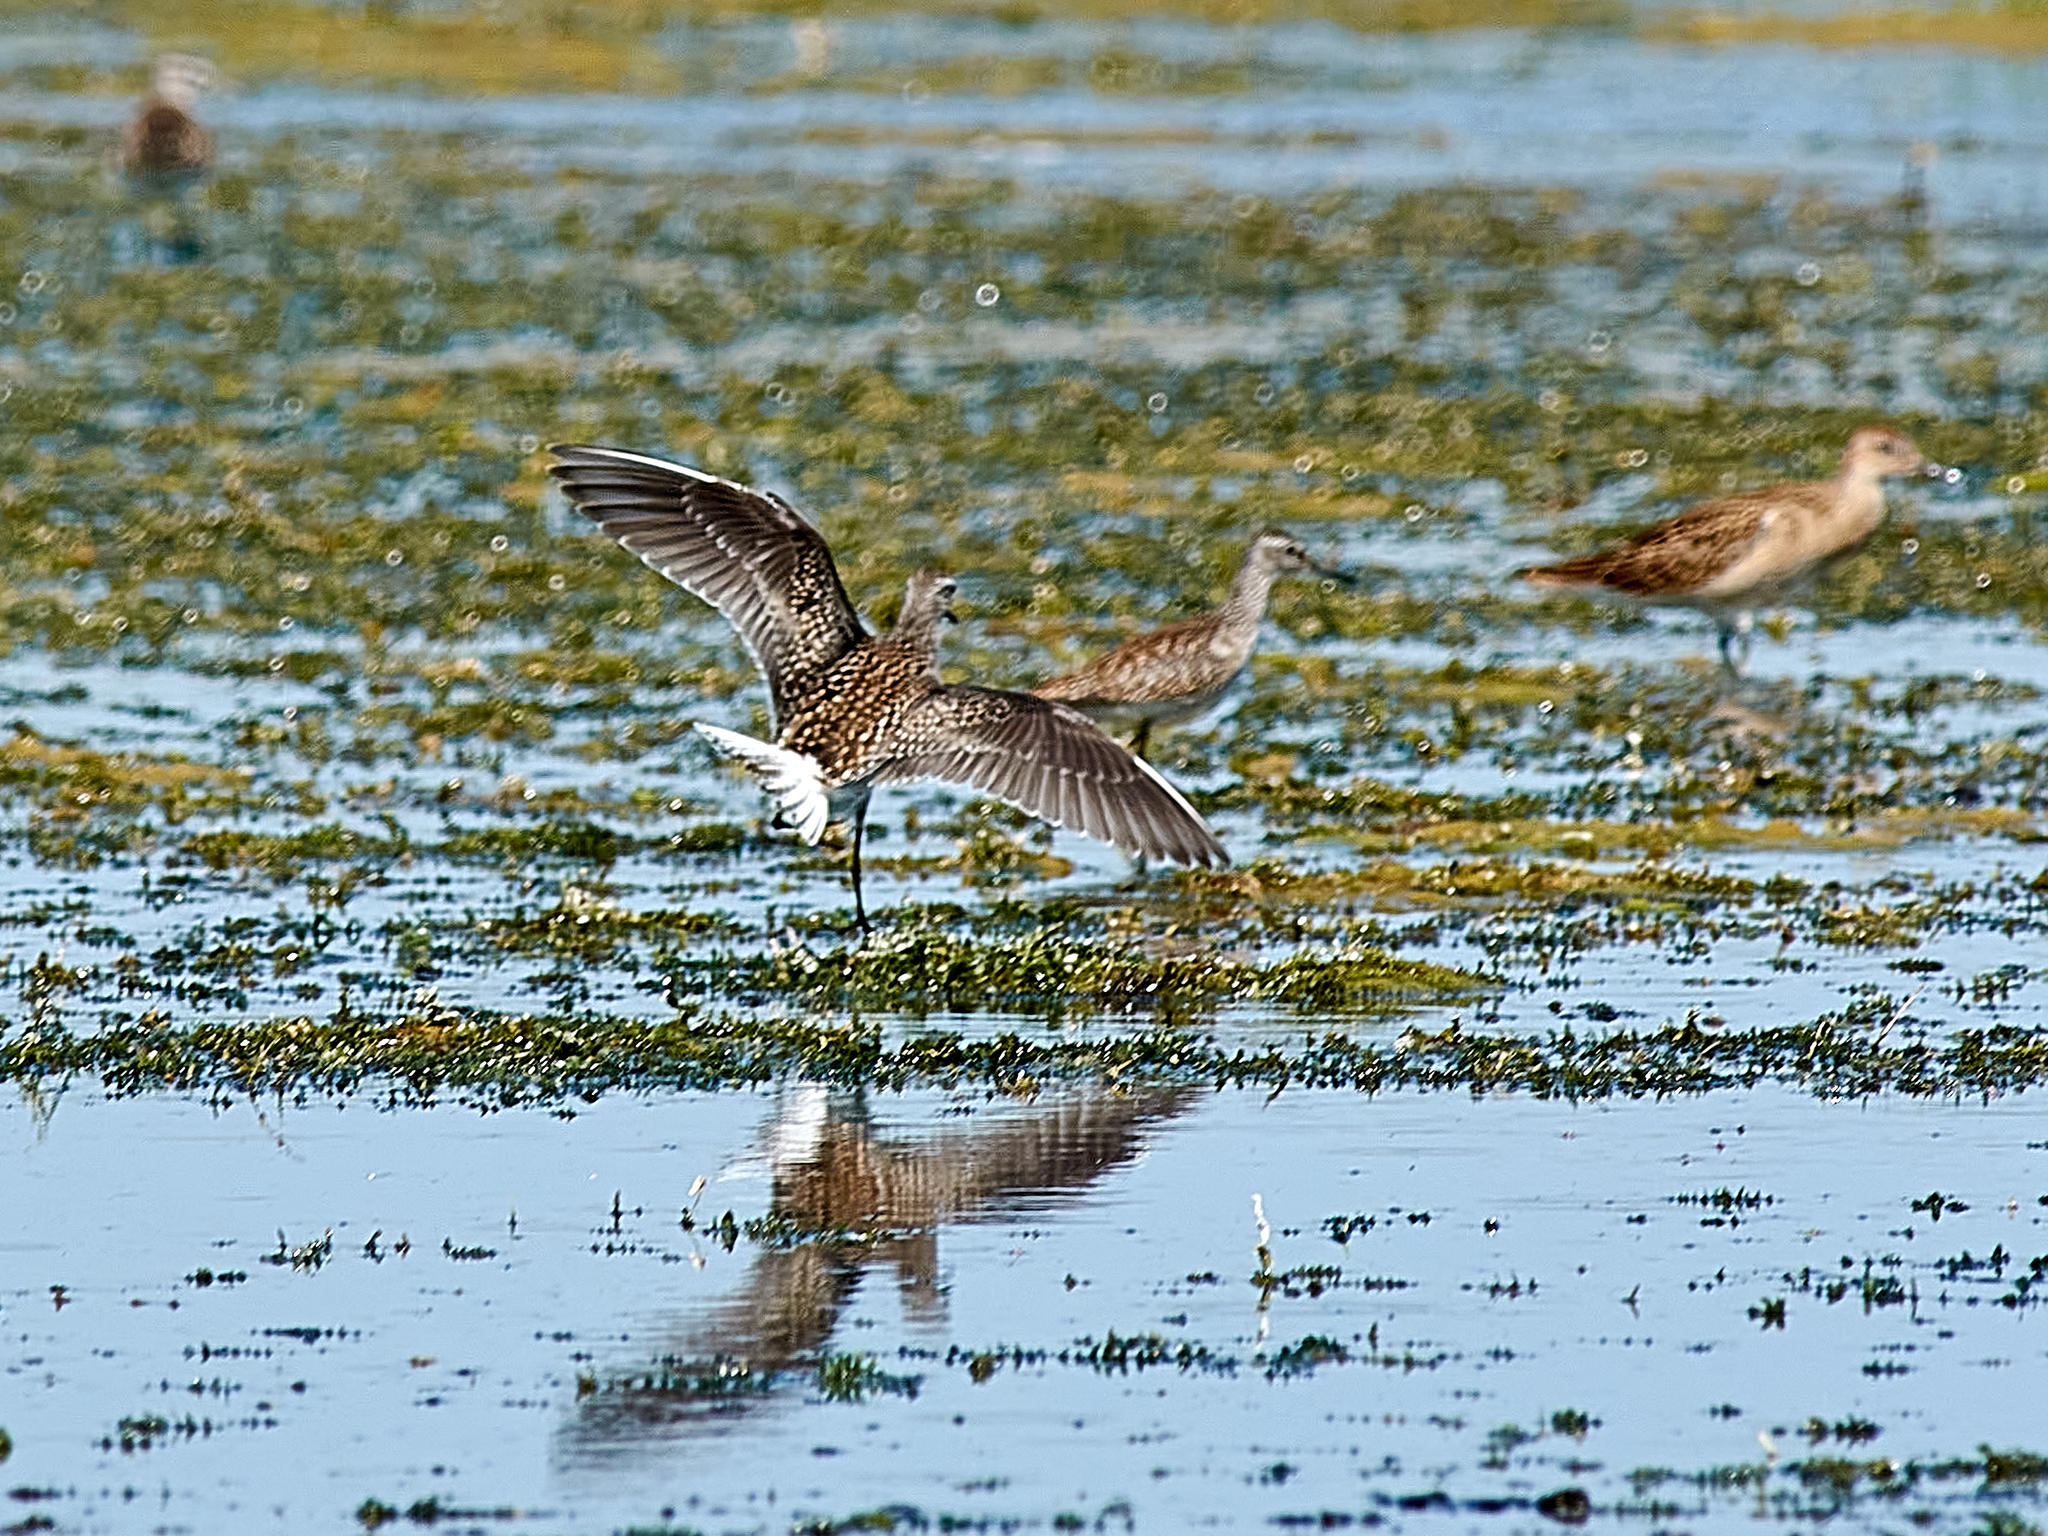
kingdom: Animalia
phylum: Chordata
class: Aves
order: Charadriiformes
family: Scolopacidae
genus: Calidris
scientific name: Calidris pugnax
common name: Ruff
